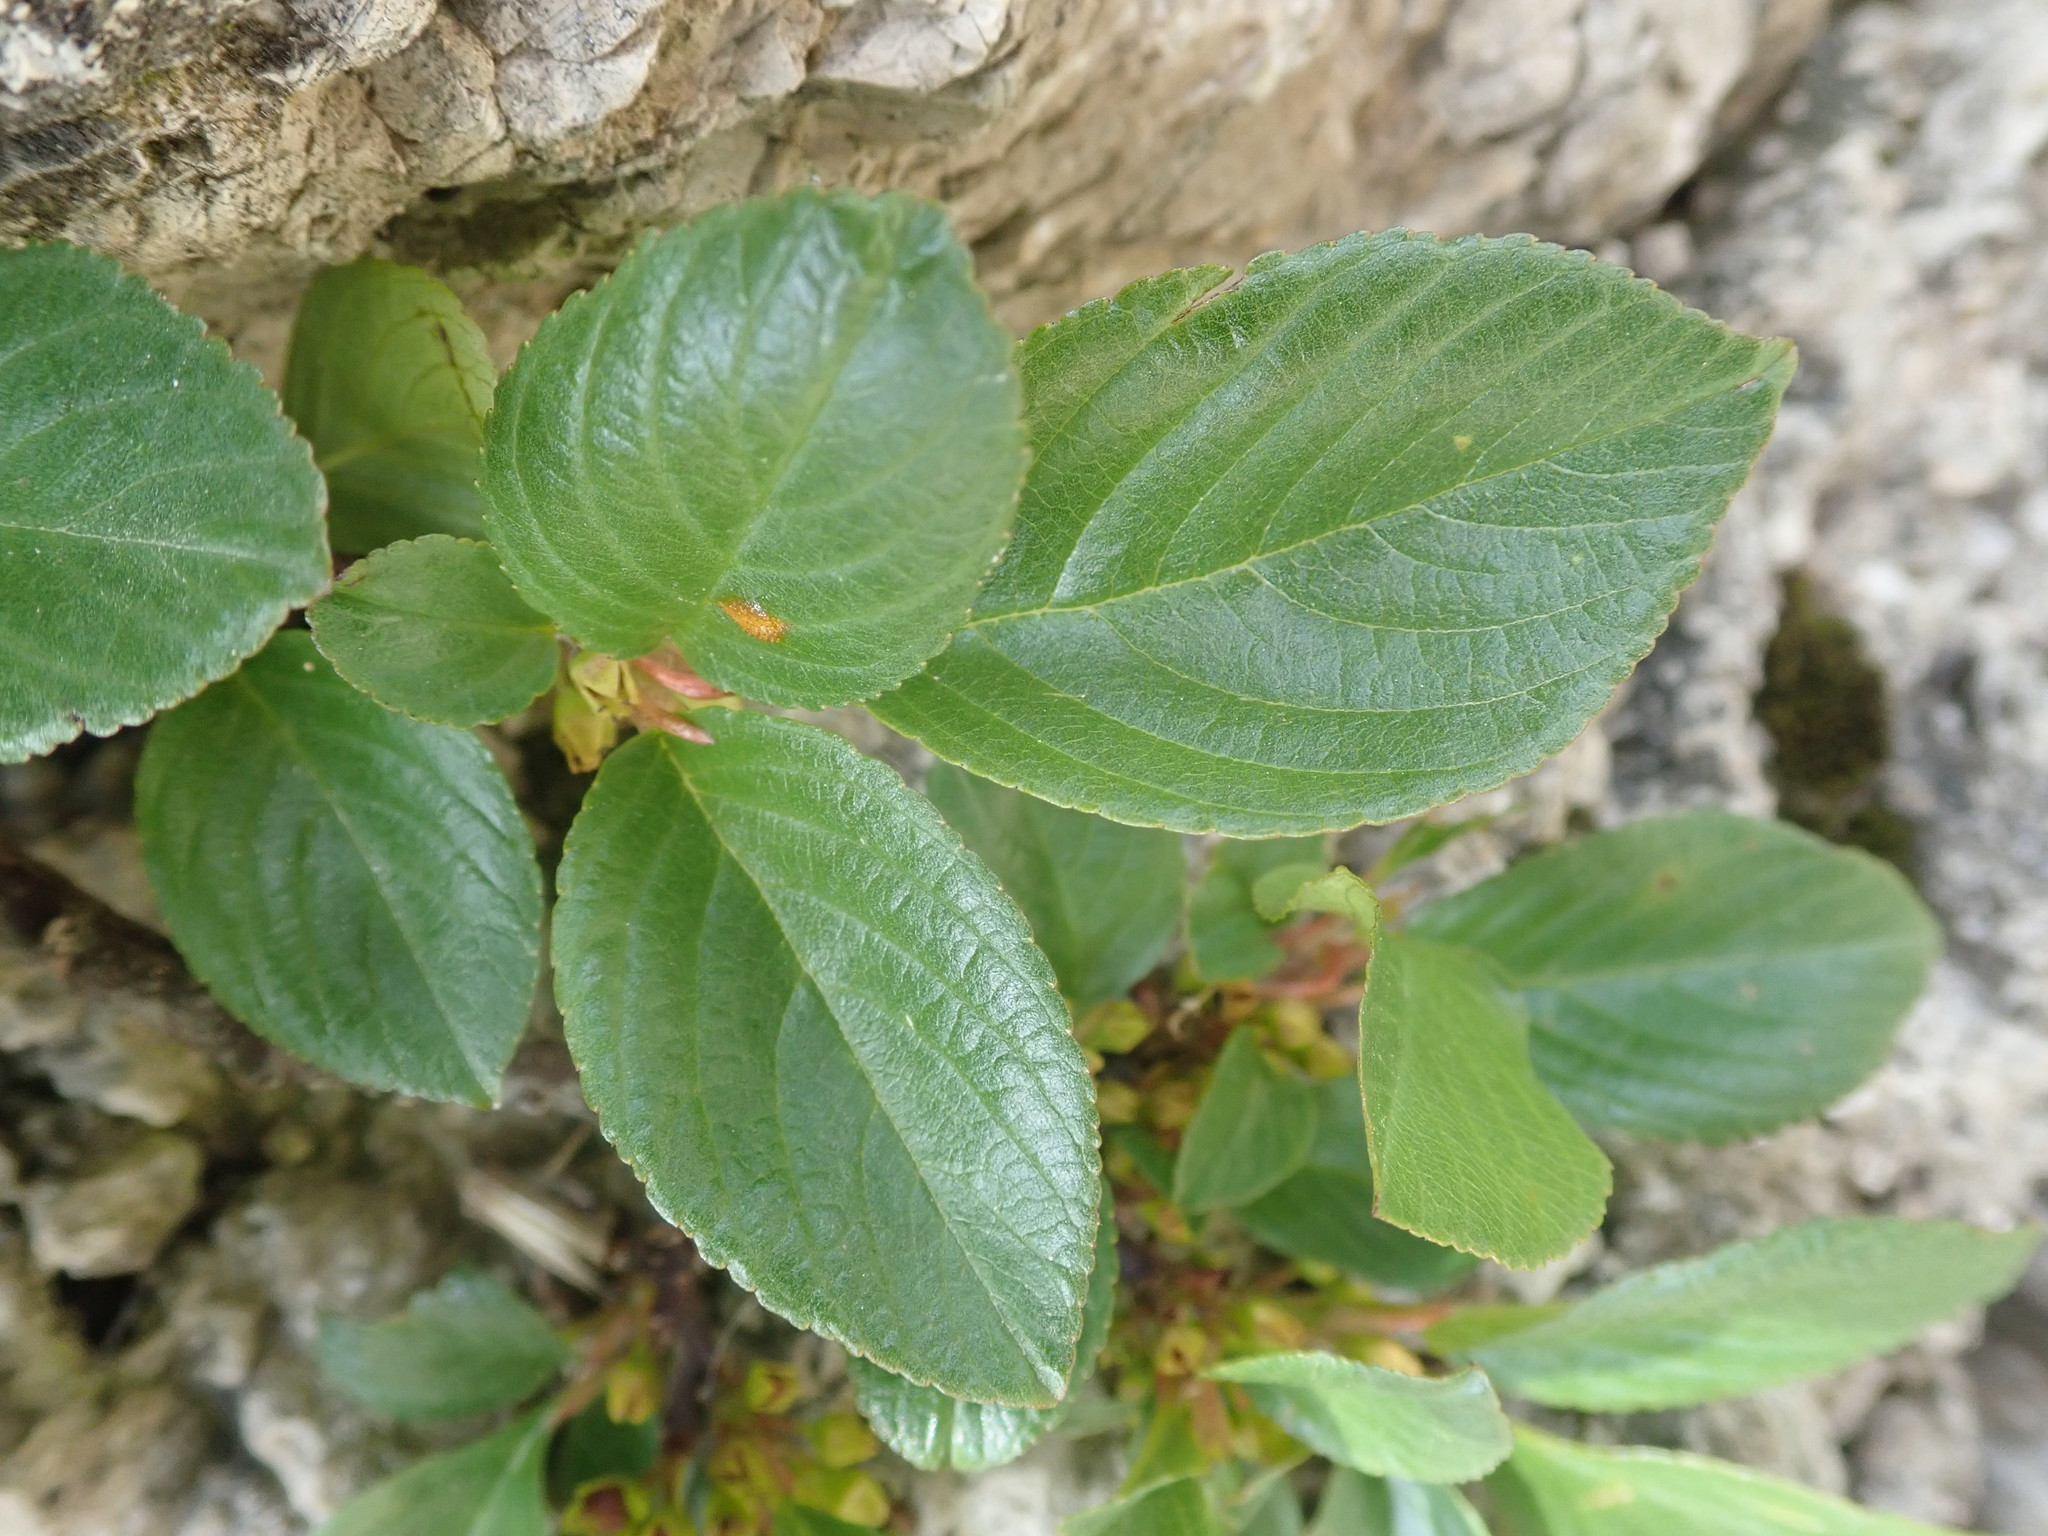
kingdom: Plantae
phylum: Tracheophyta
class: Magnoliopsida
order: Rosales
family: Rhamnaceae
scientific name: Rhamnaceae
